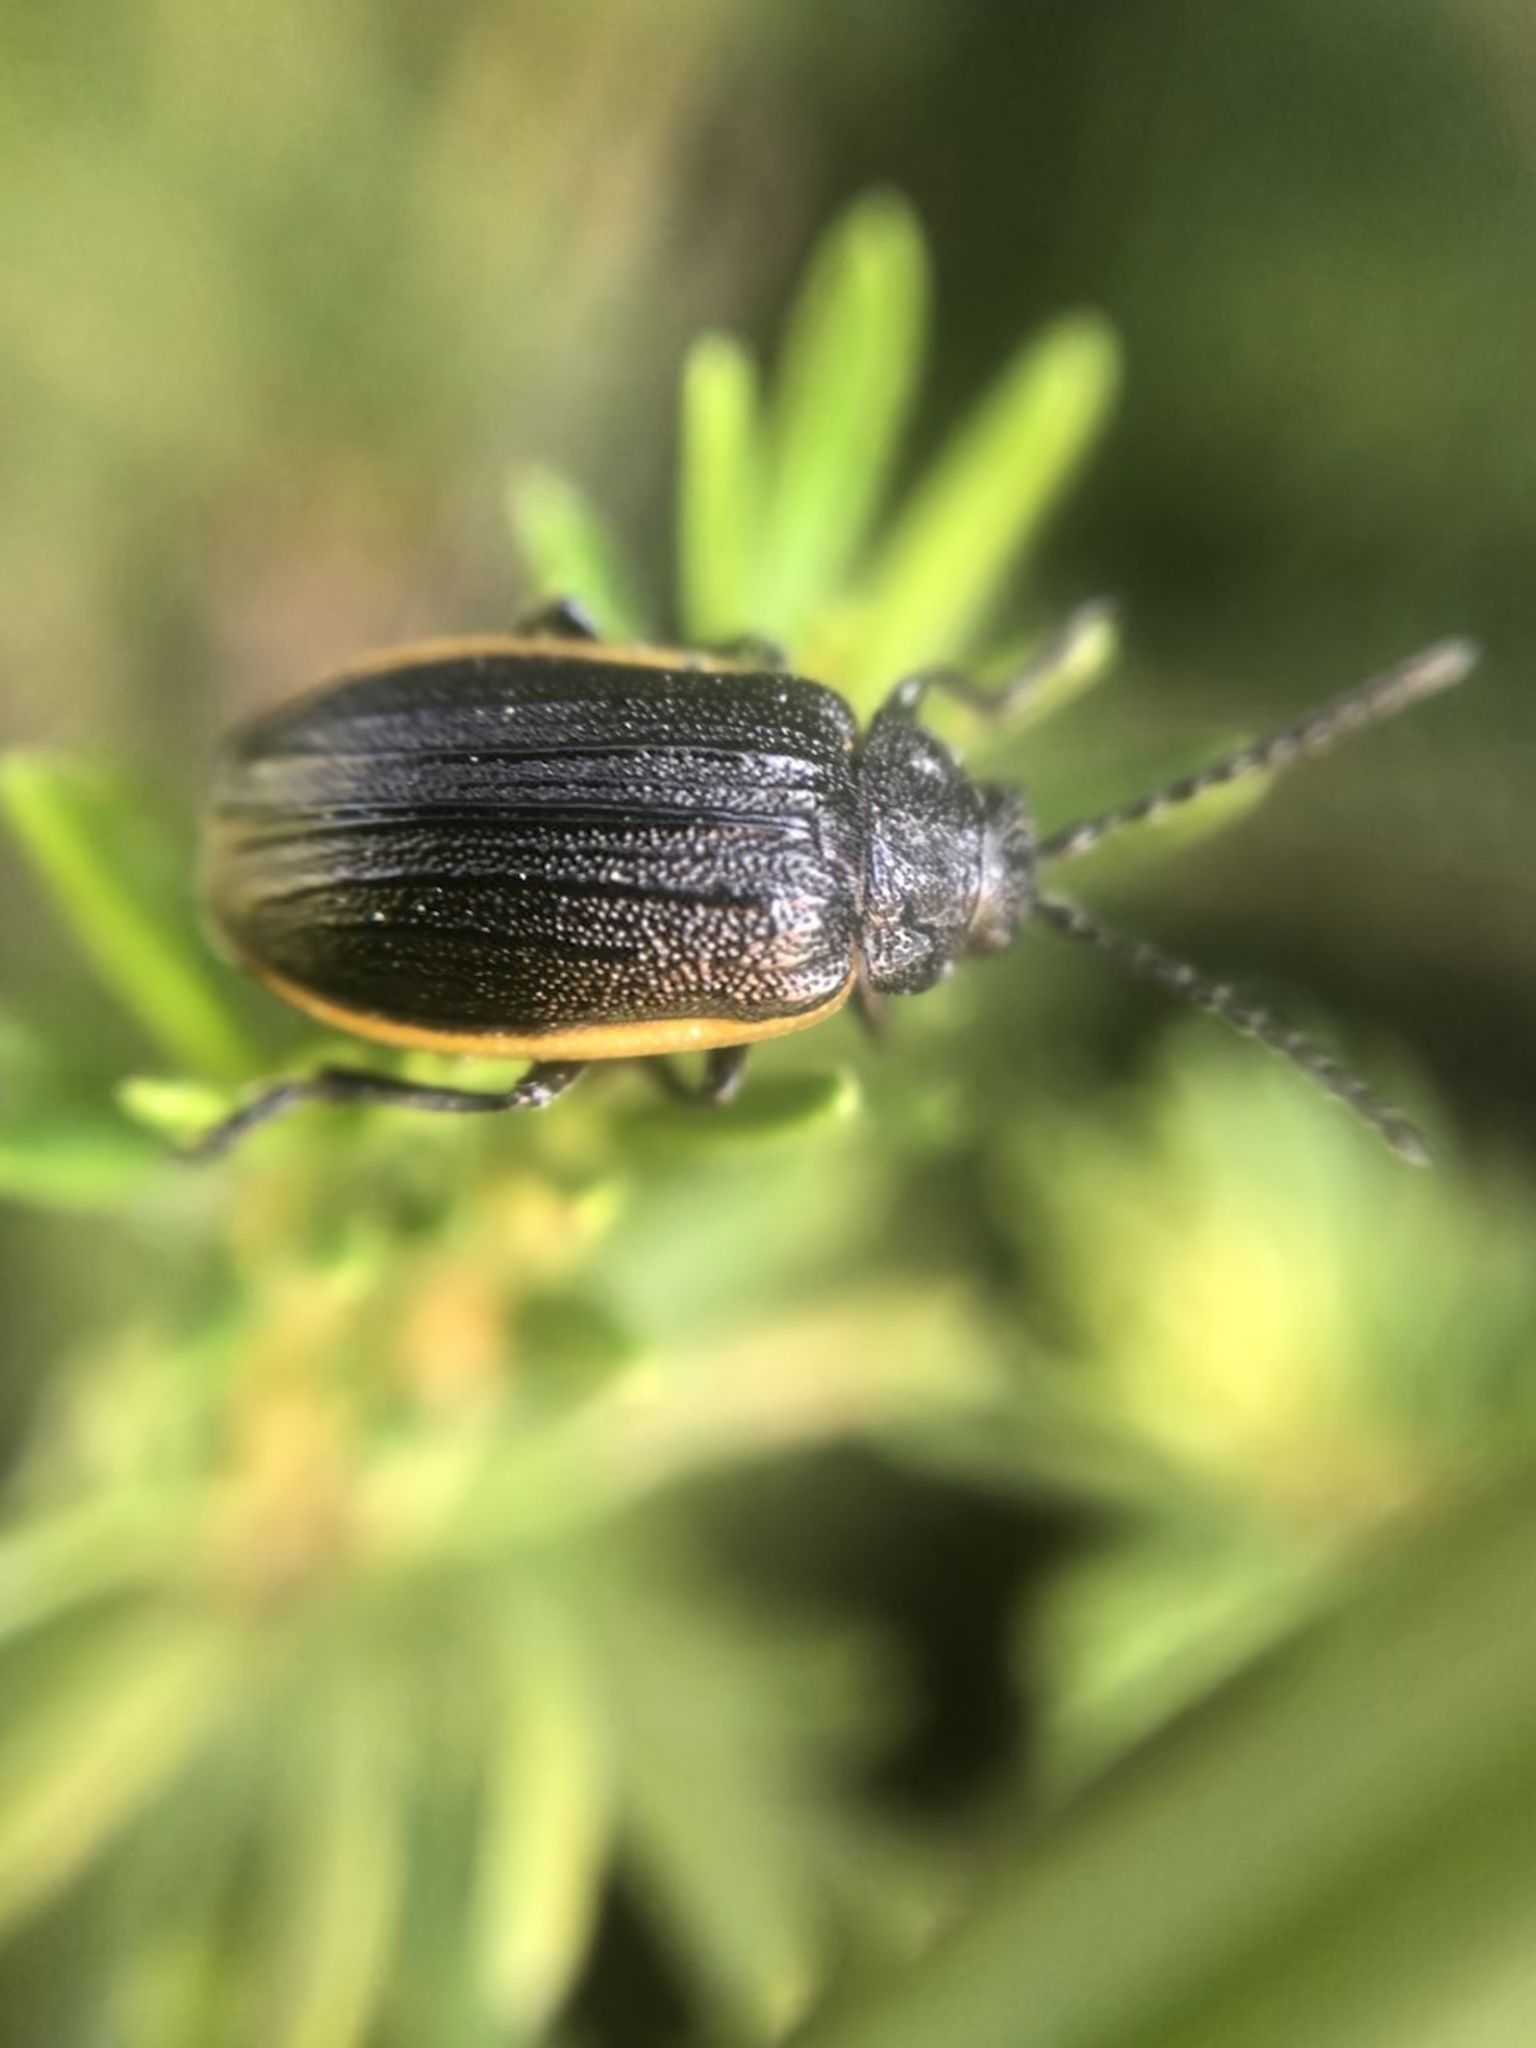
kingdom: Animalia
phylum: Arthropoda
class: Insecta
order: Coleoptera
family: Chrysomelidae
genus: Galeruca
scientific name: Galeruca rudis
